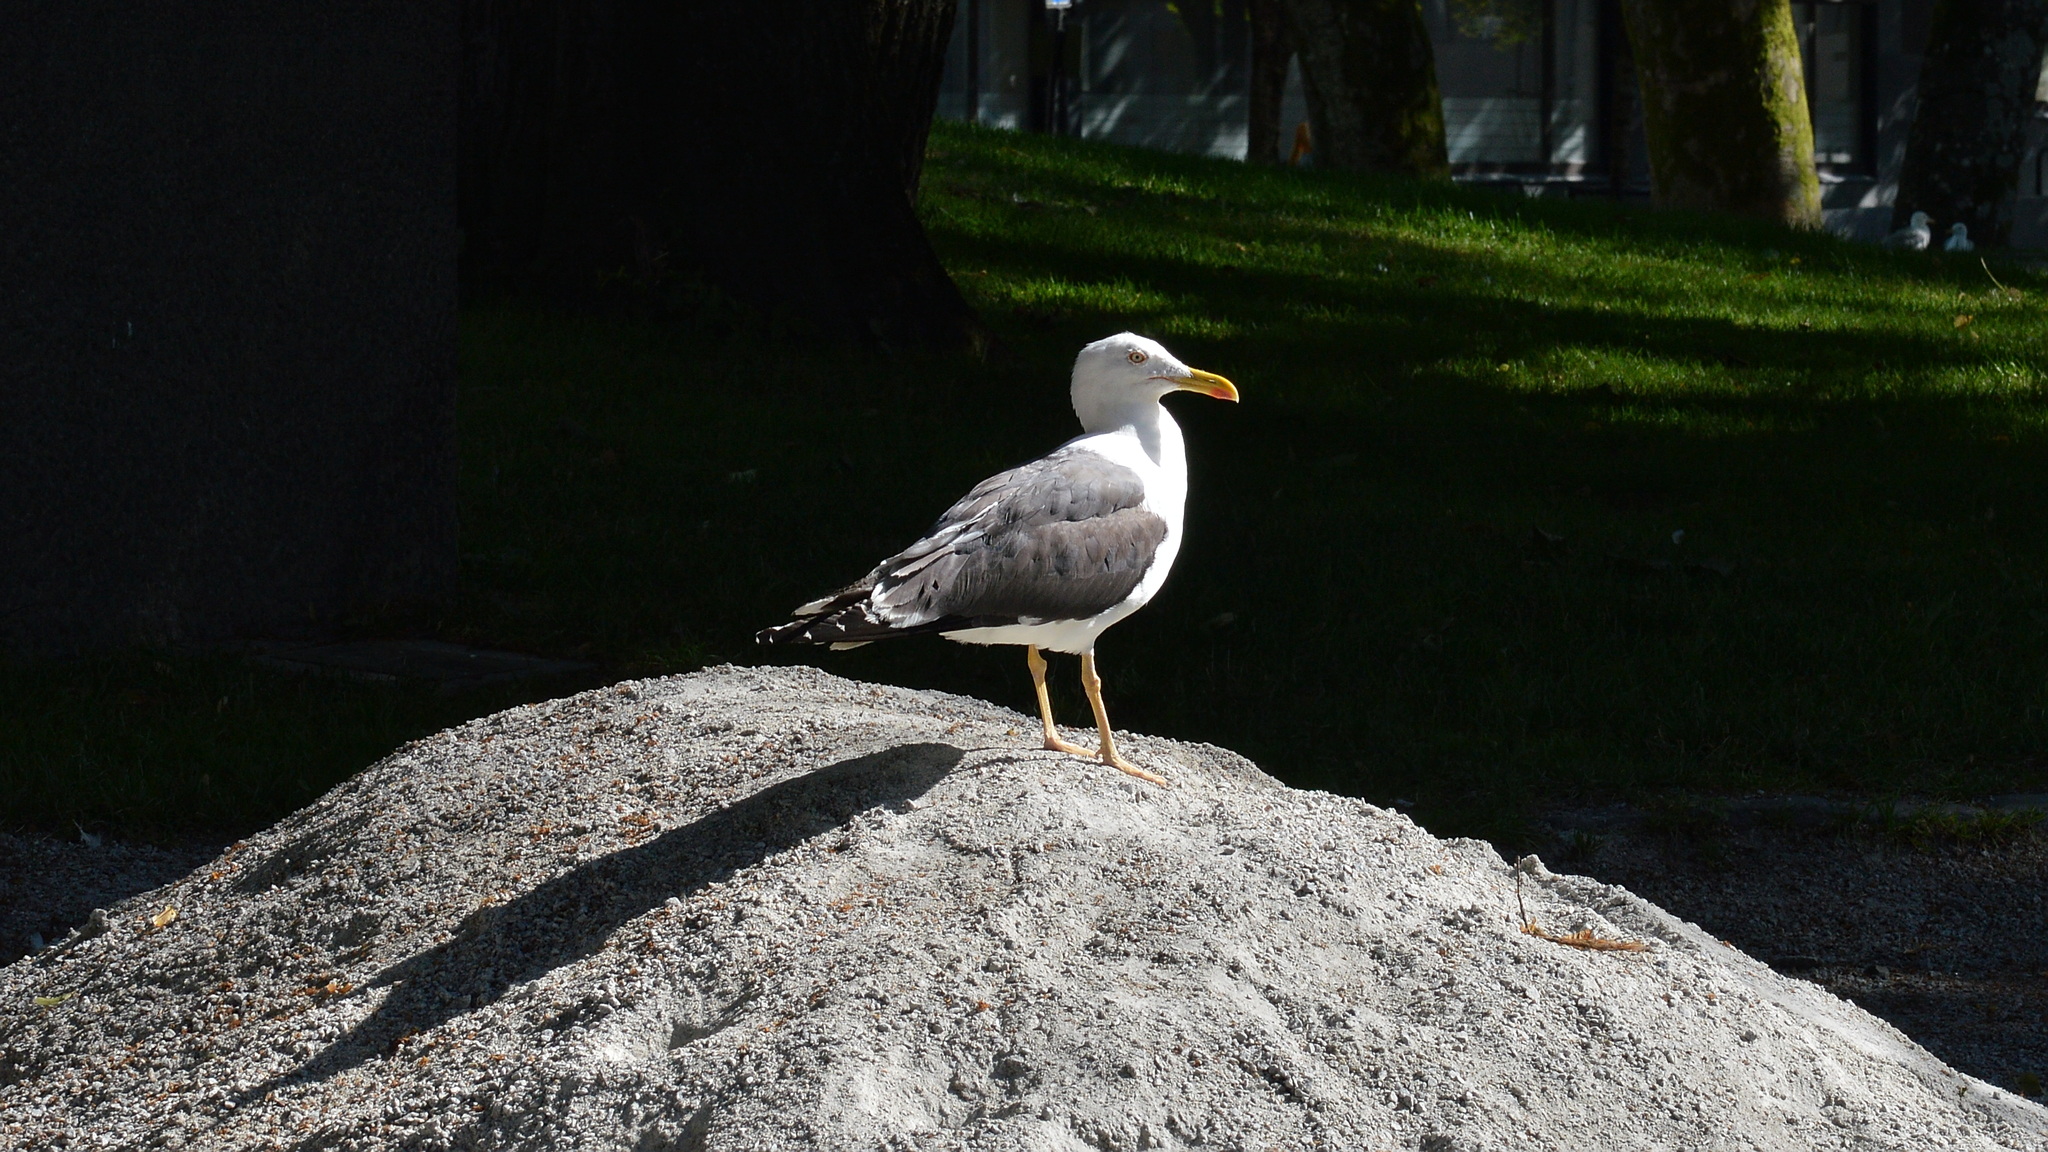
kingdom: Animalia
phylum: Chordata
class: Aves
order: Charadriiformes
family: Laridae
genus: Larus
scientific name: Larus fuscus
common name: Lesser black-backed gull
